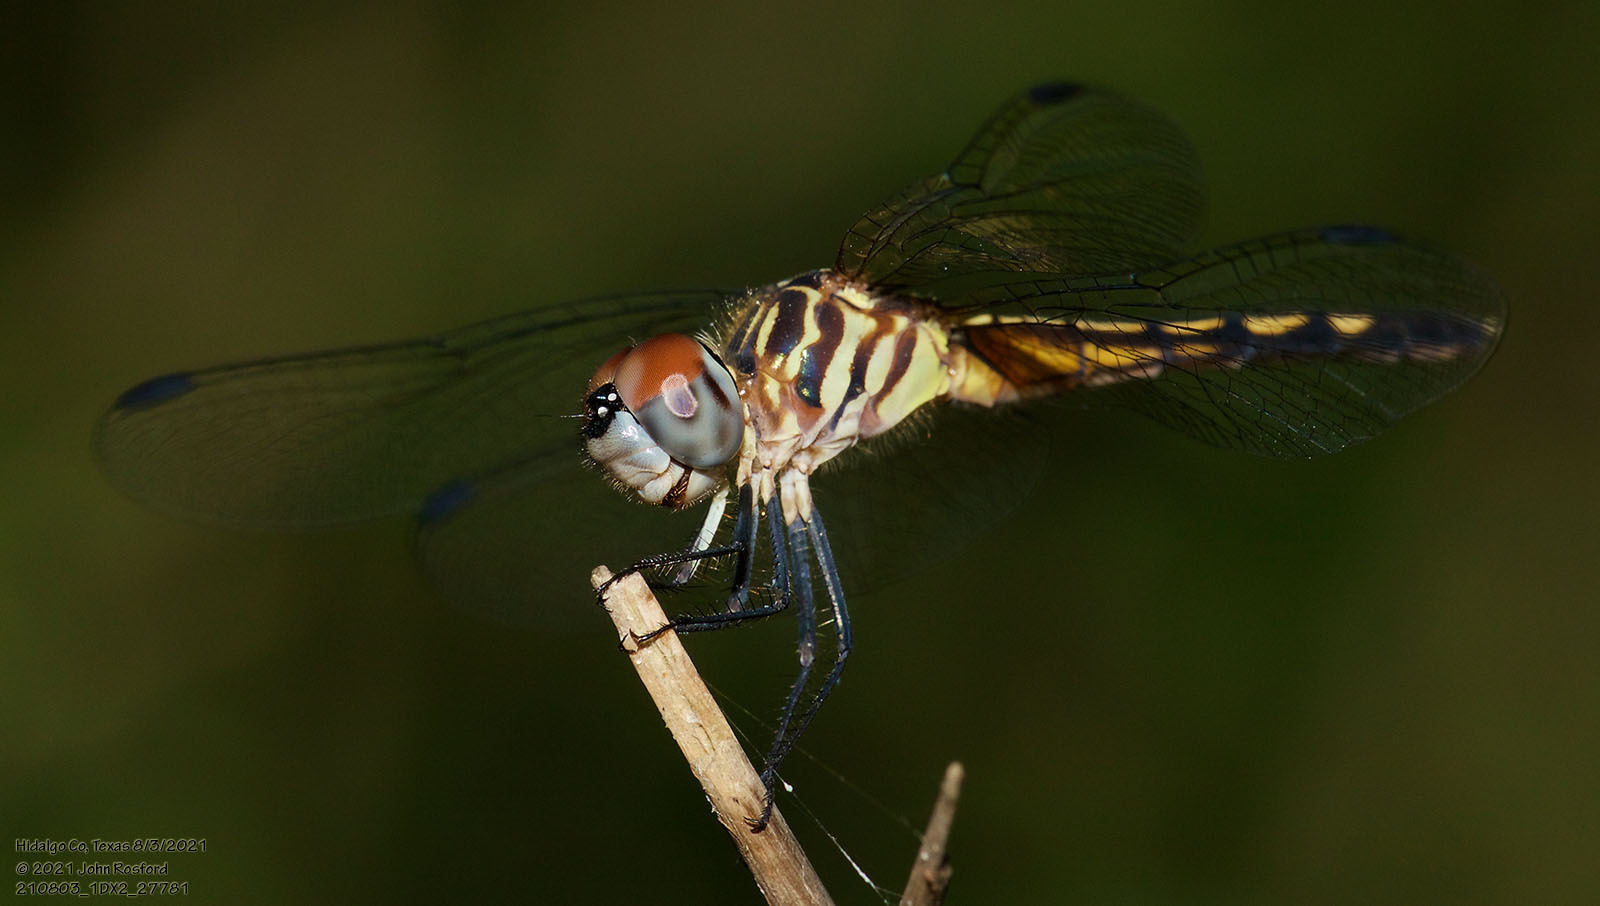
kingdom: Animalia
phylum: Arthropoda
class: Insecta
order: Odonata
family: Libellulidae
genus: Pachydiplax
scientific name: Pachydiplax longipennis
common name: Blue dasher
